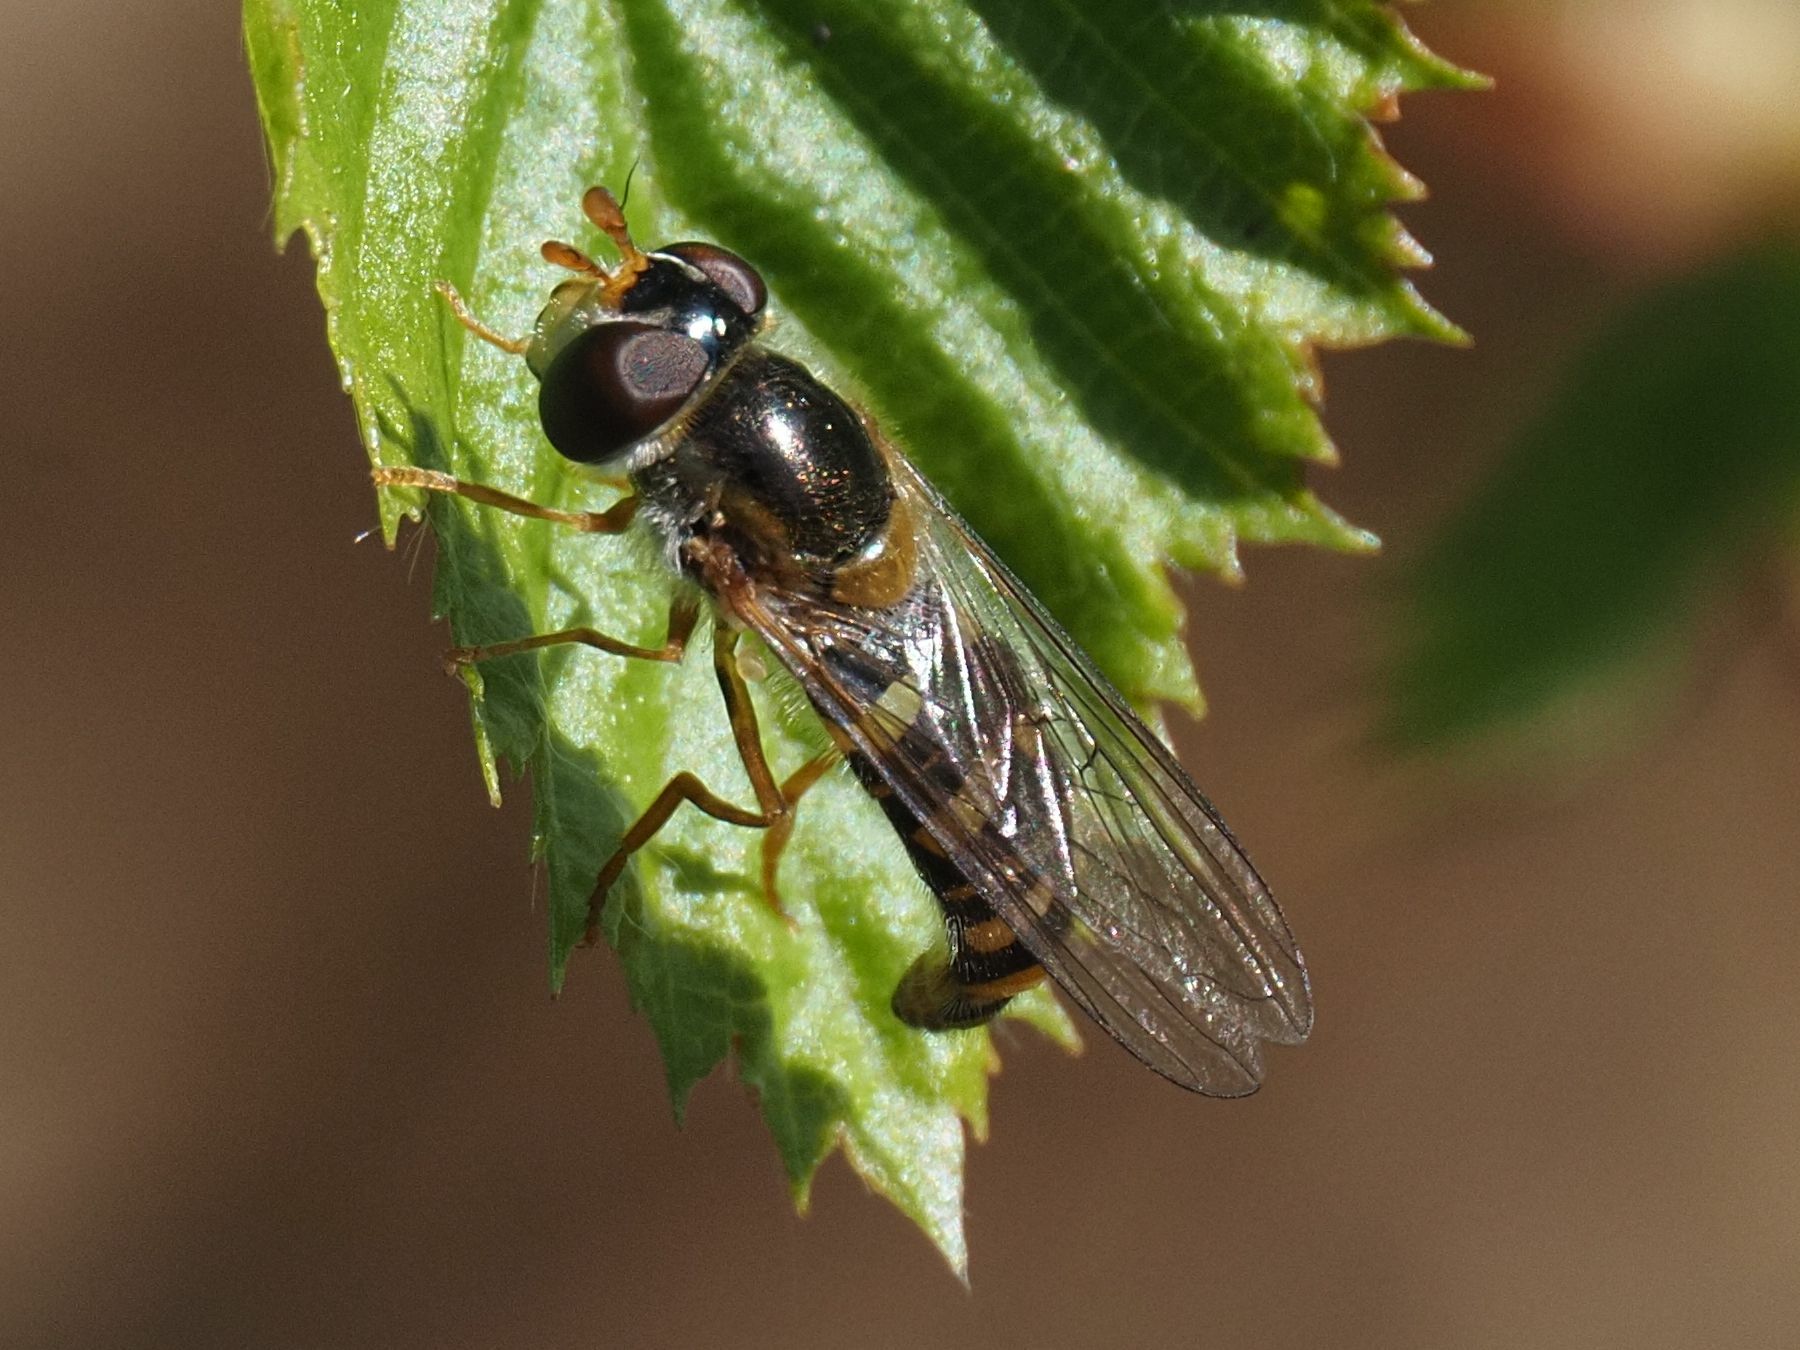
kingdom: Animalia
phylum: Arthropoda
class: Insecta
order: Diptera
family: Syrphidae
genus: Epistrophella
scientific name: Epistrophella euchromus
